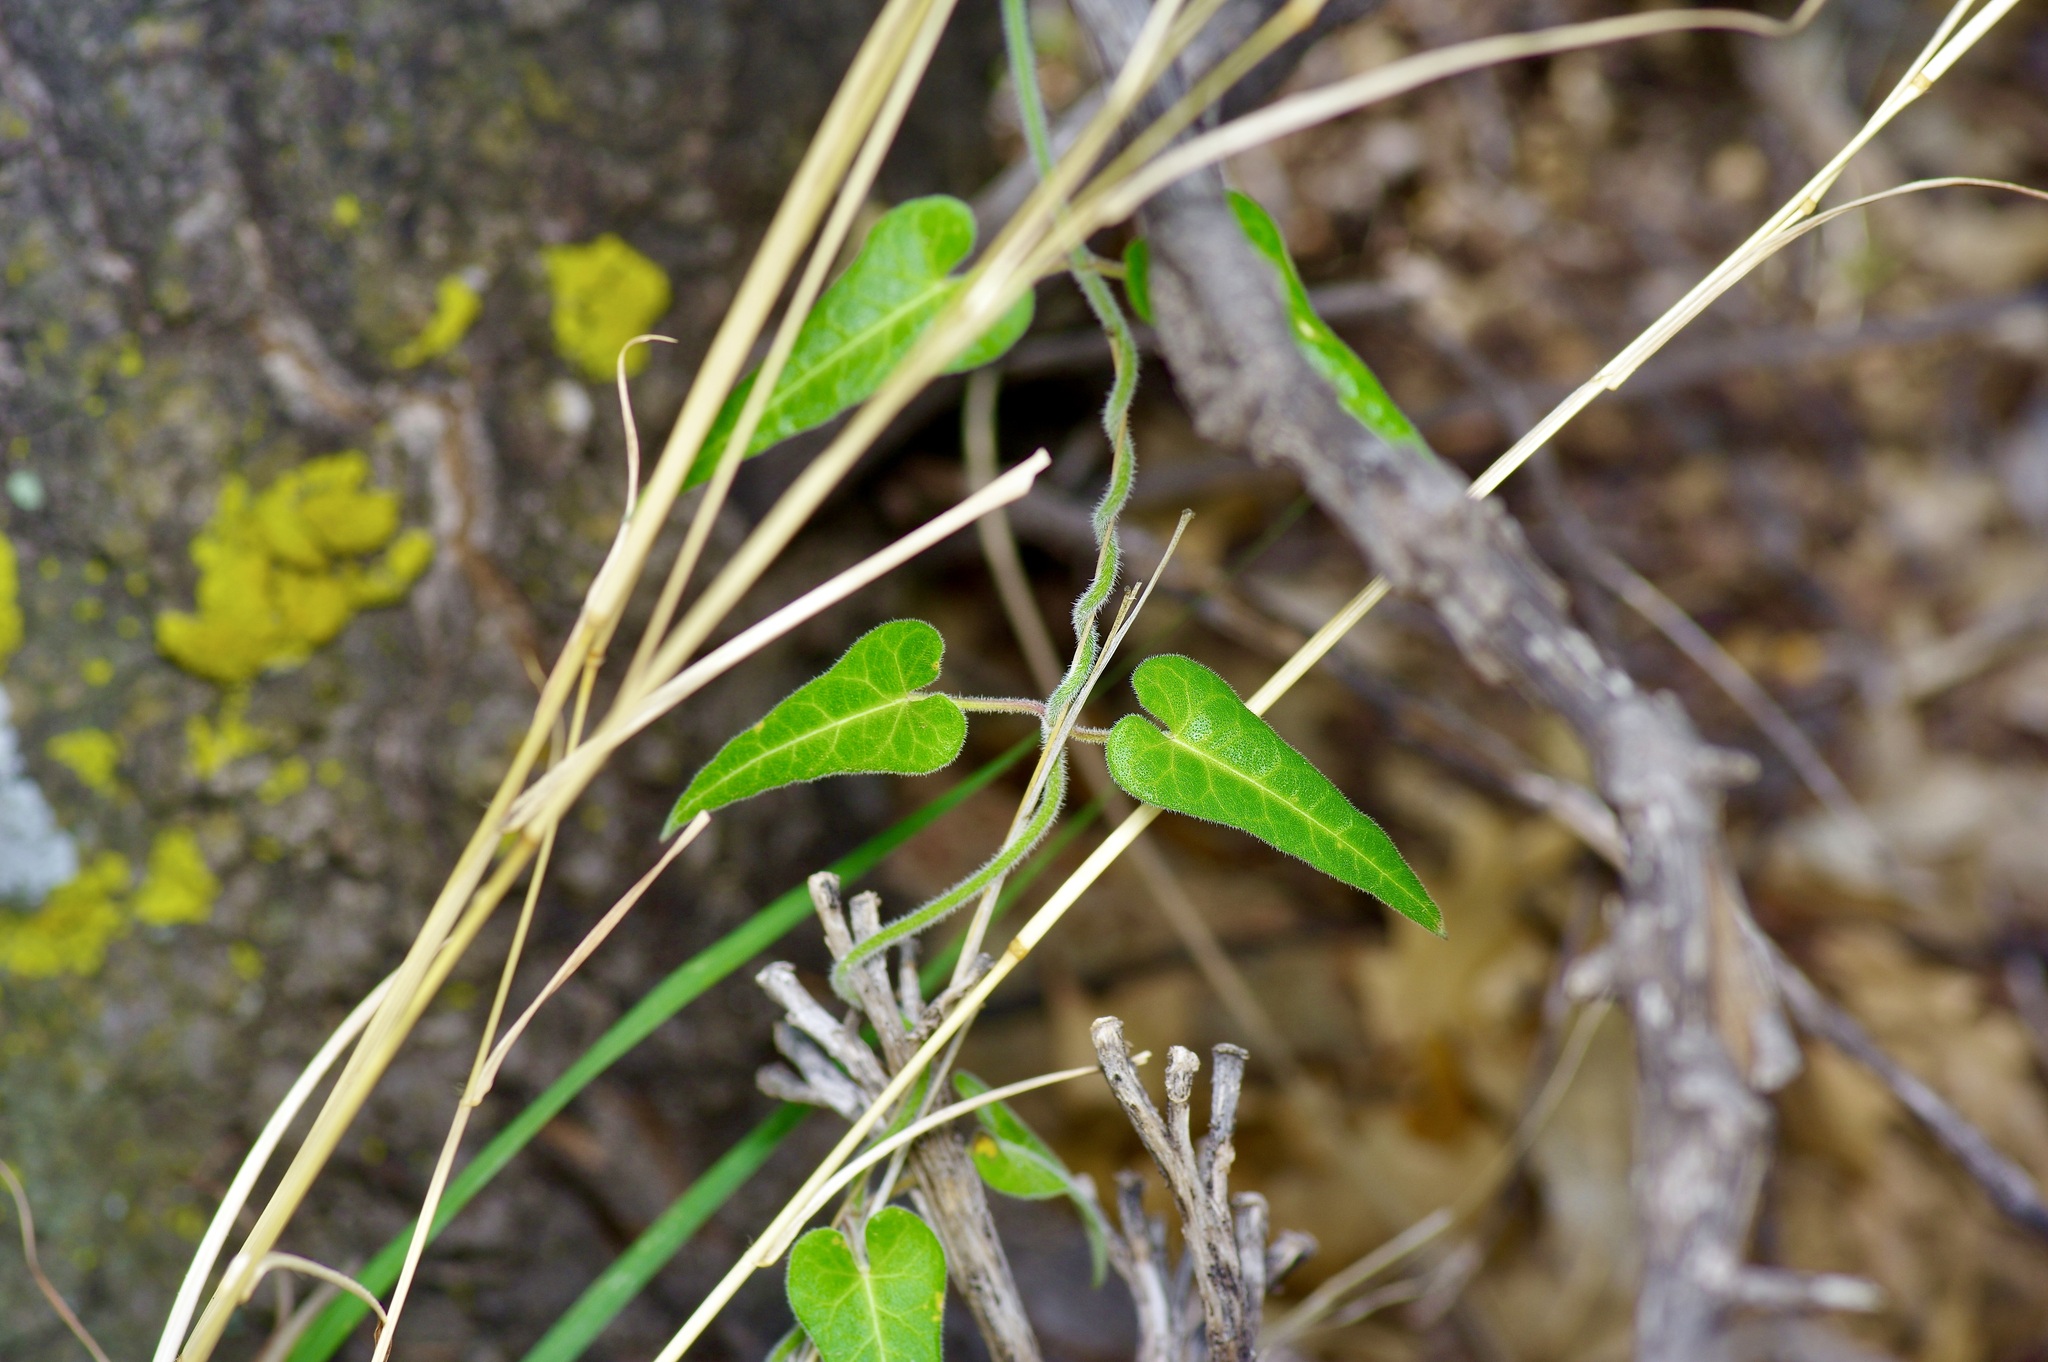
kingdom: Plantae
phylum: Tracheophyta
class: Magnoliopsida
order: Gentianales
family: Apocynaceae
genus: Funastrum
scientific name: Funastrum torreyi
